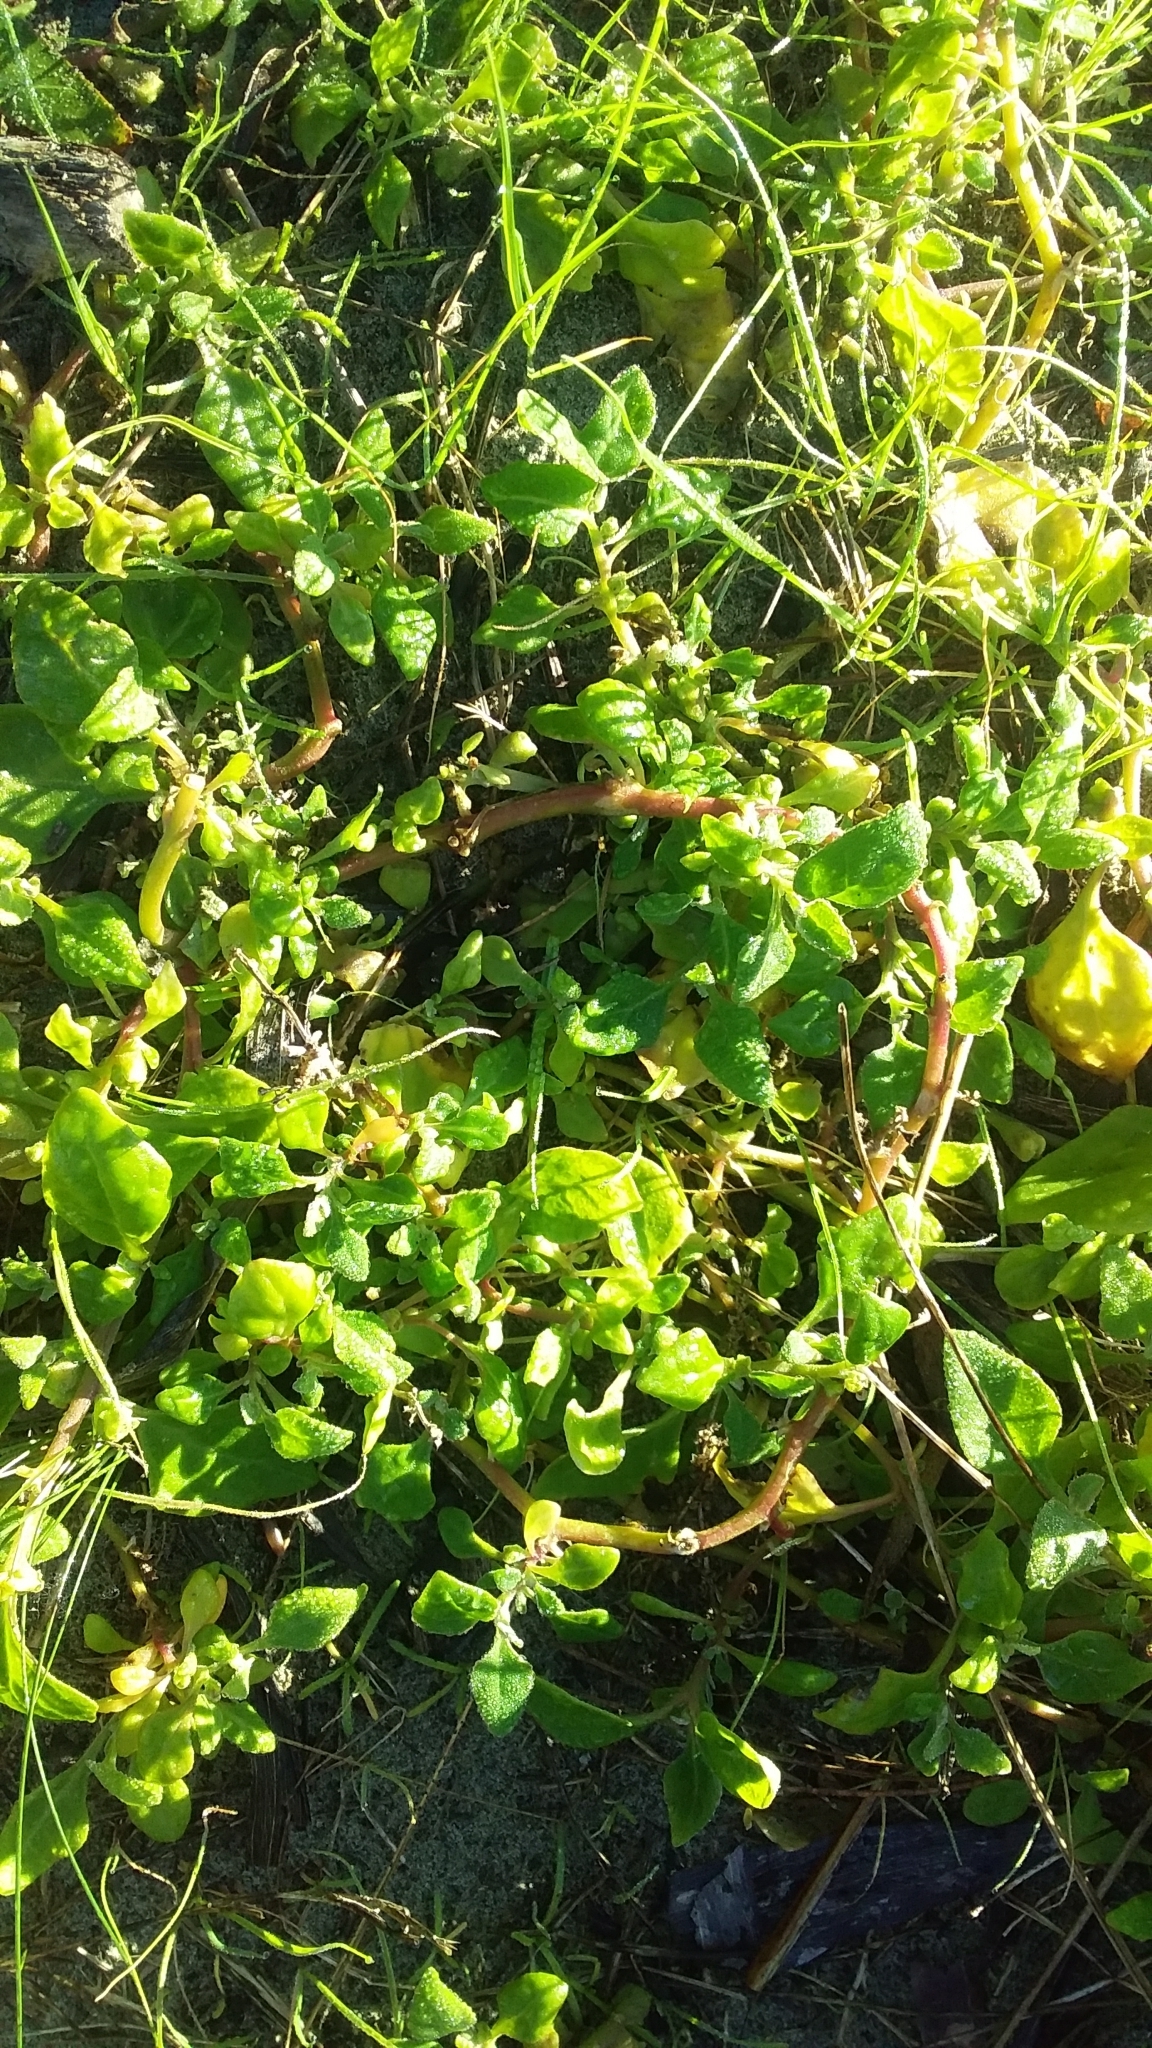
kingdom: Plantae
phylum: Tracheophyta
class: Magnoliopsida
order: Caryophyllales
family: Aizoaceae
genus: Tetragonia
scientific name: Tetragonia implexicoma
